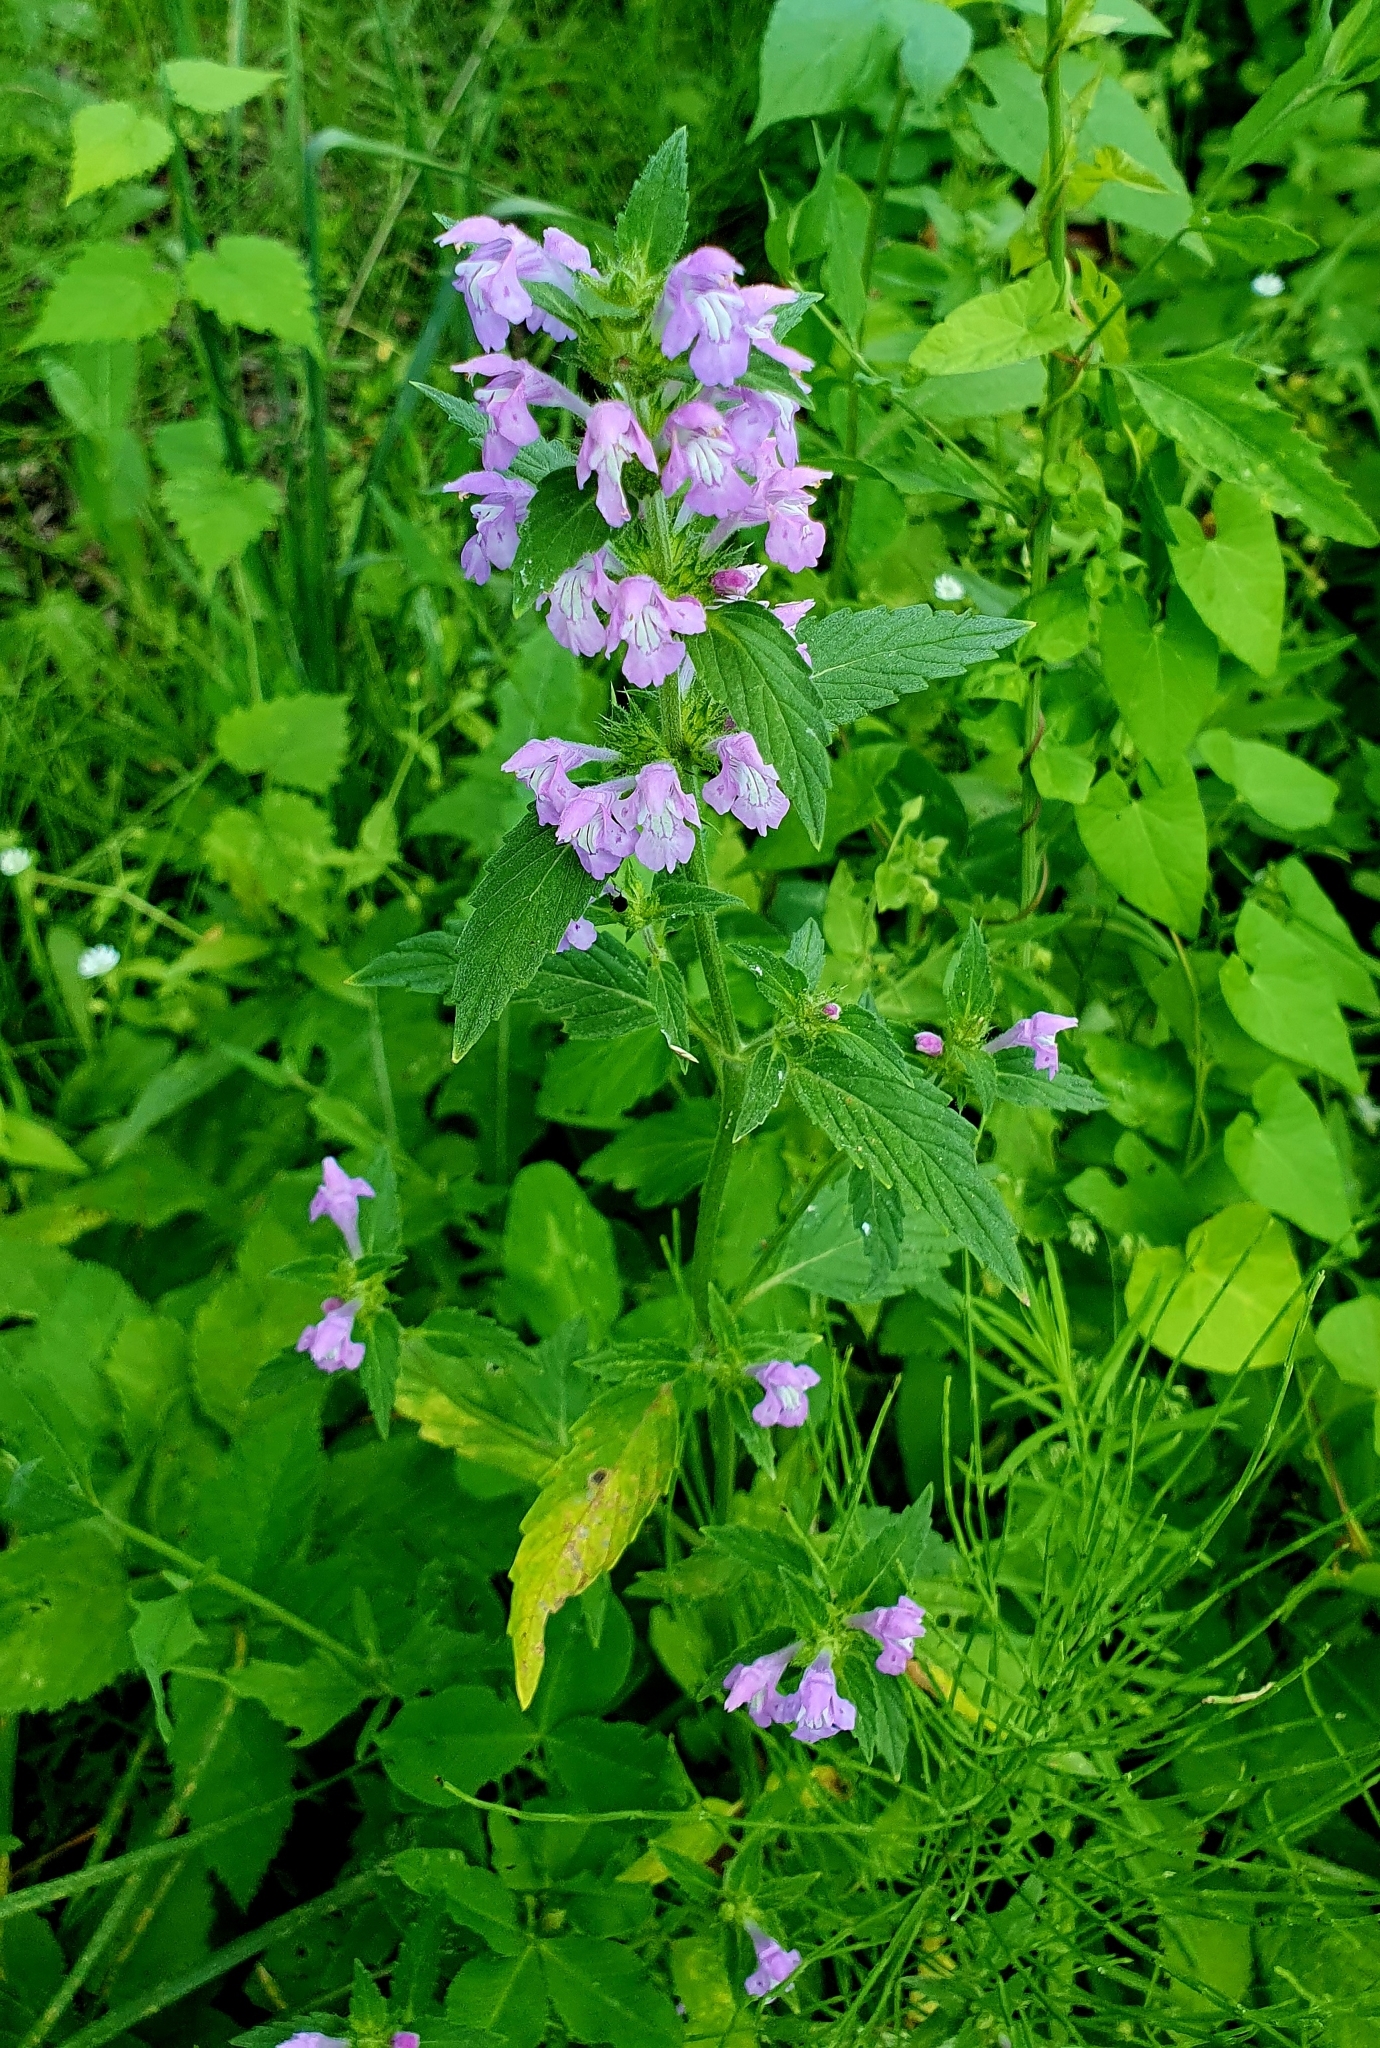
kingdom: Plantae
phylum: Tracheophyta
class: Magnoliopsida
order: Lamiales
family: Lamiaceae
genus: Galeopsis
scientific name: Galeopsis ladanum
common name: Broad-leaved hemp-nettle
